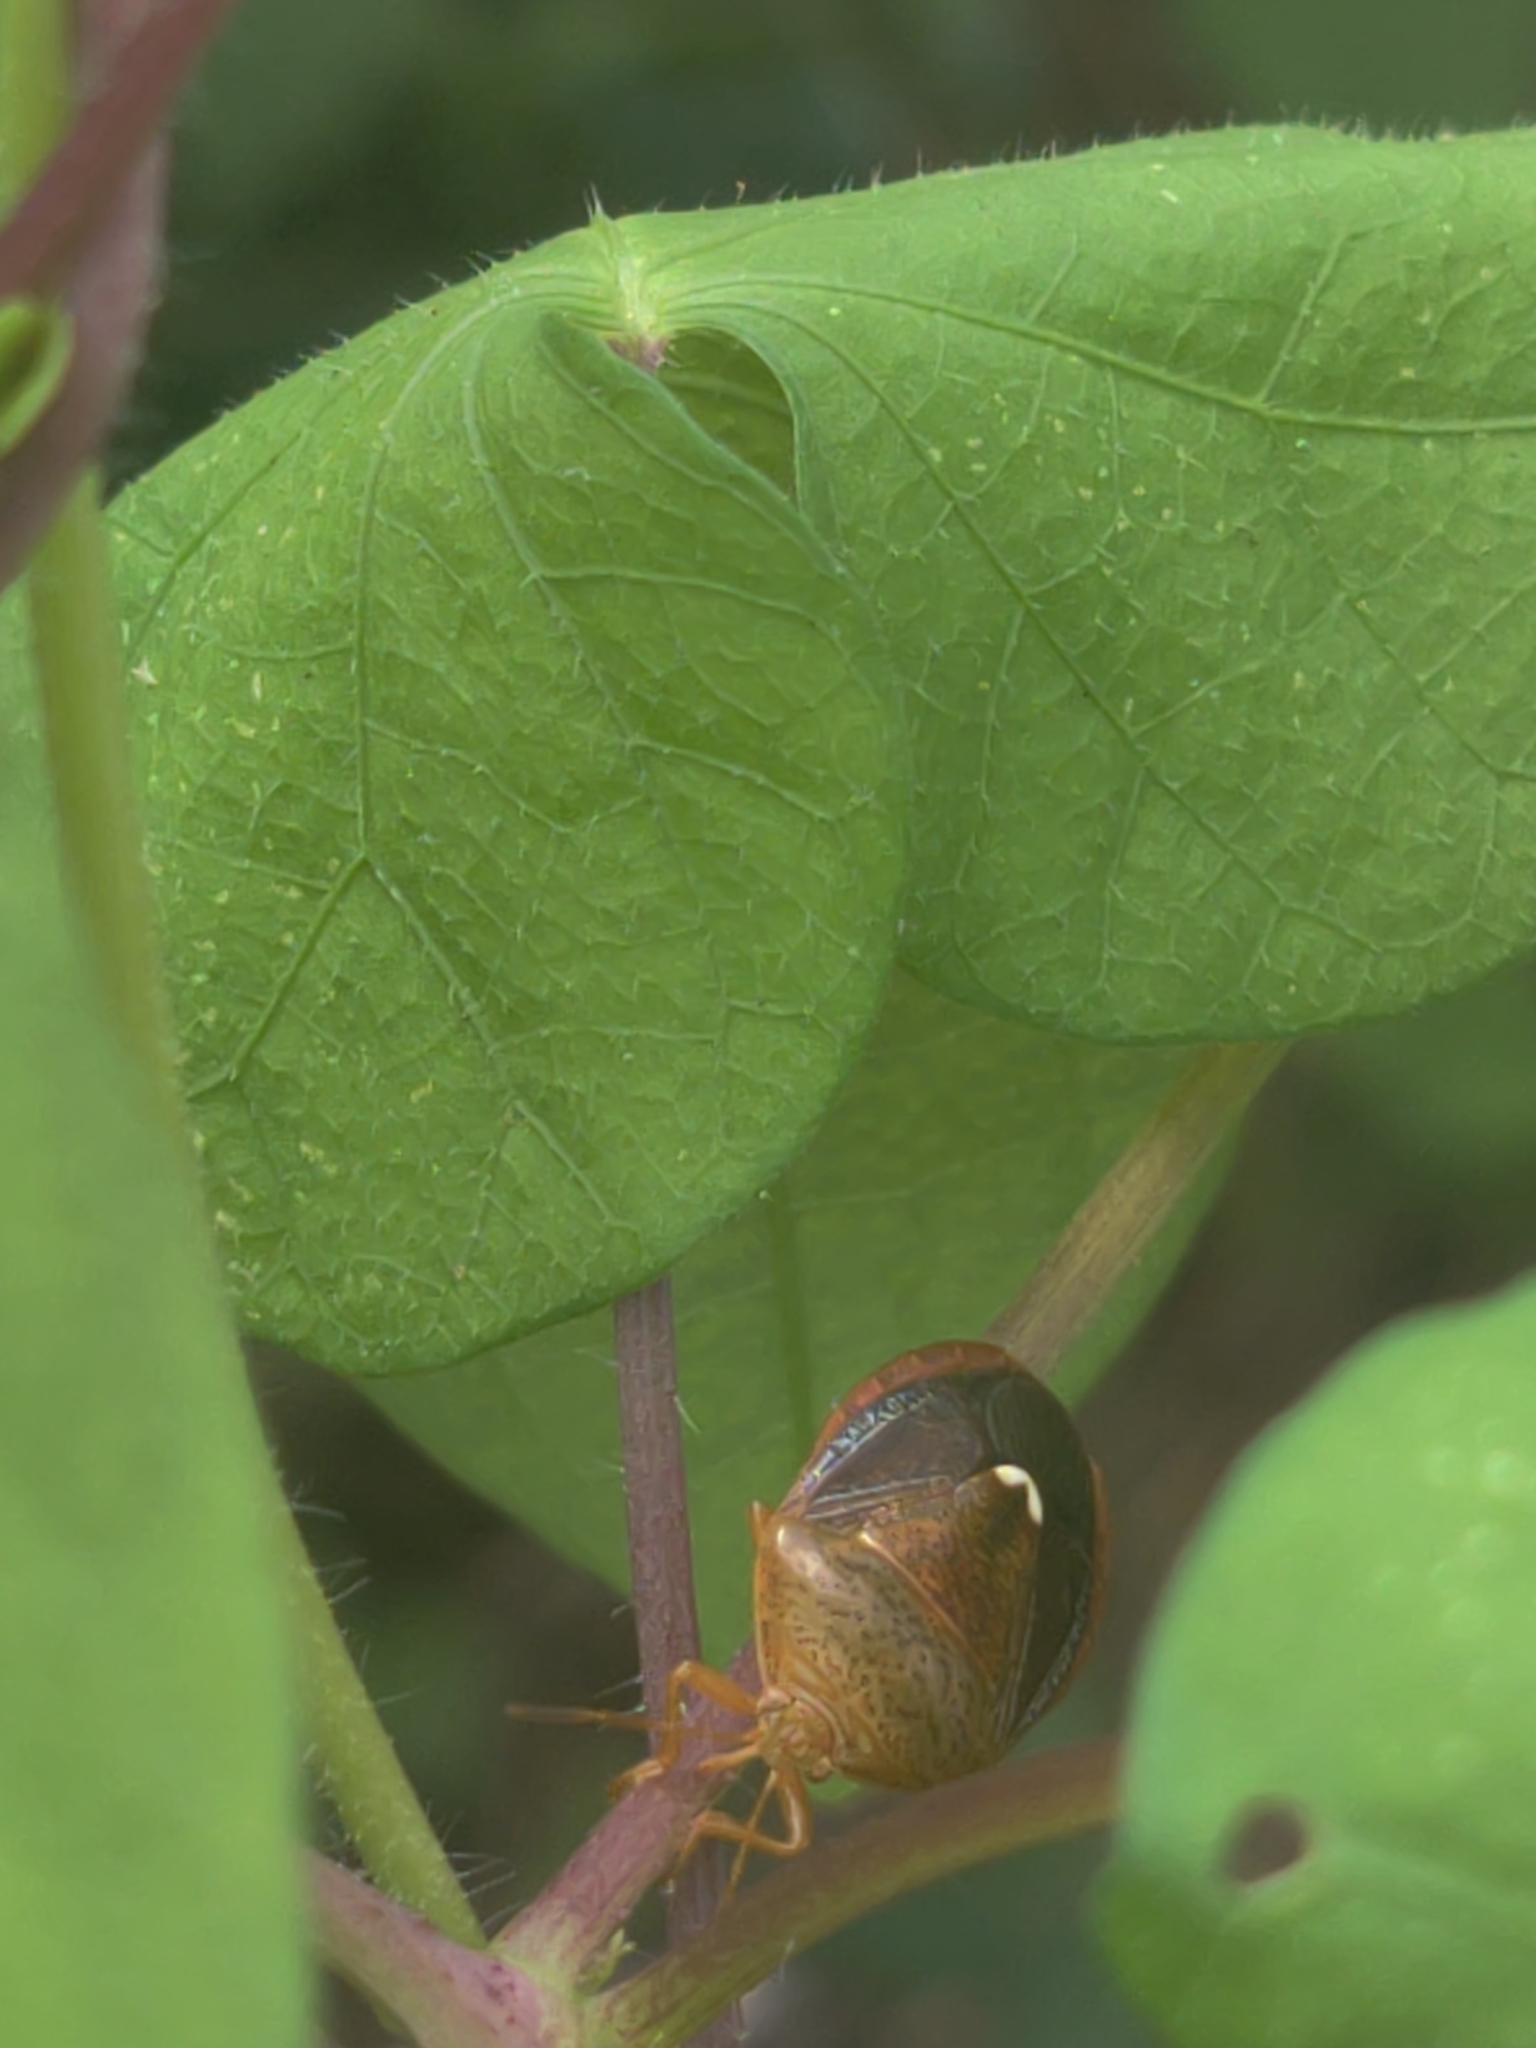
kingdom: Animalia
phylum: Arthropoda
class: Insecta
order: Hemiptera
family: Pentatomidae
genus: Edessa
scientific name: Edessa bifida
